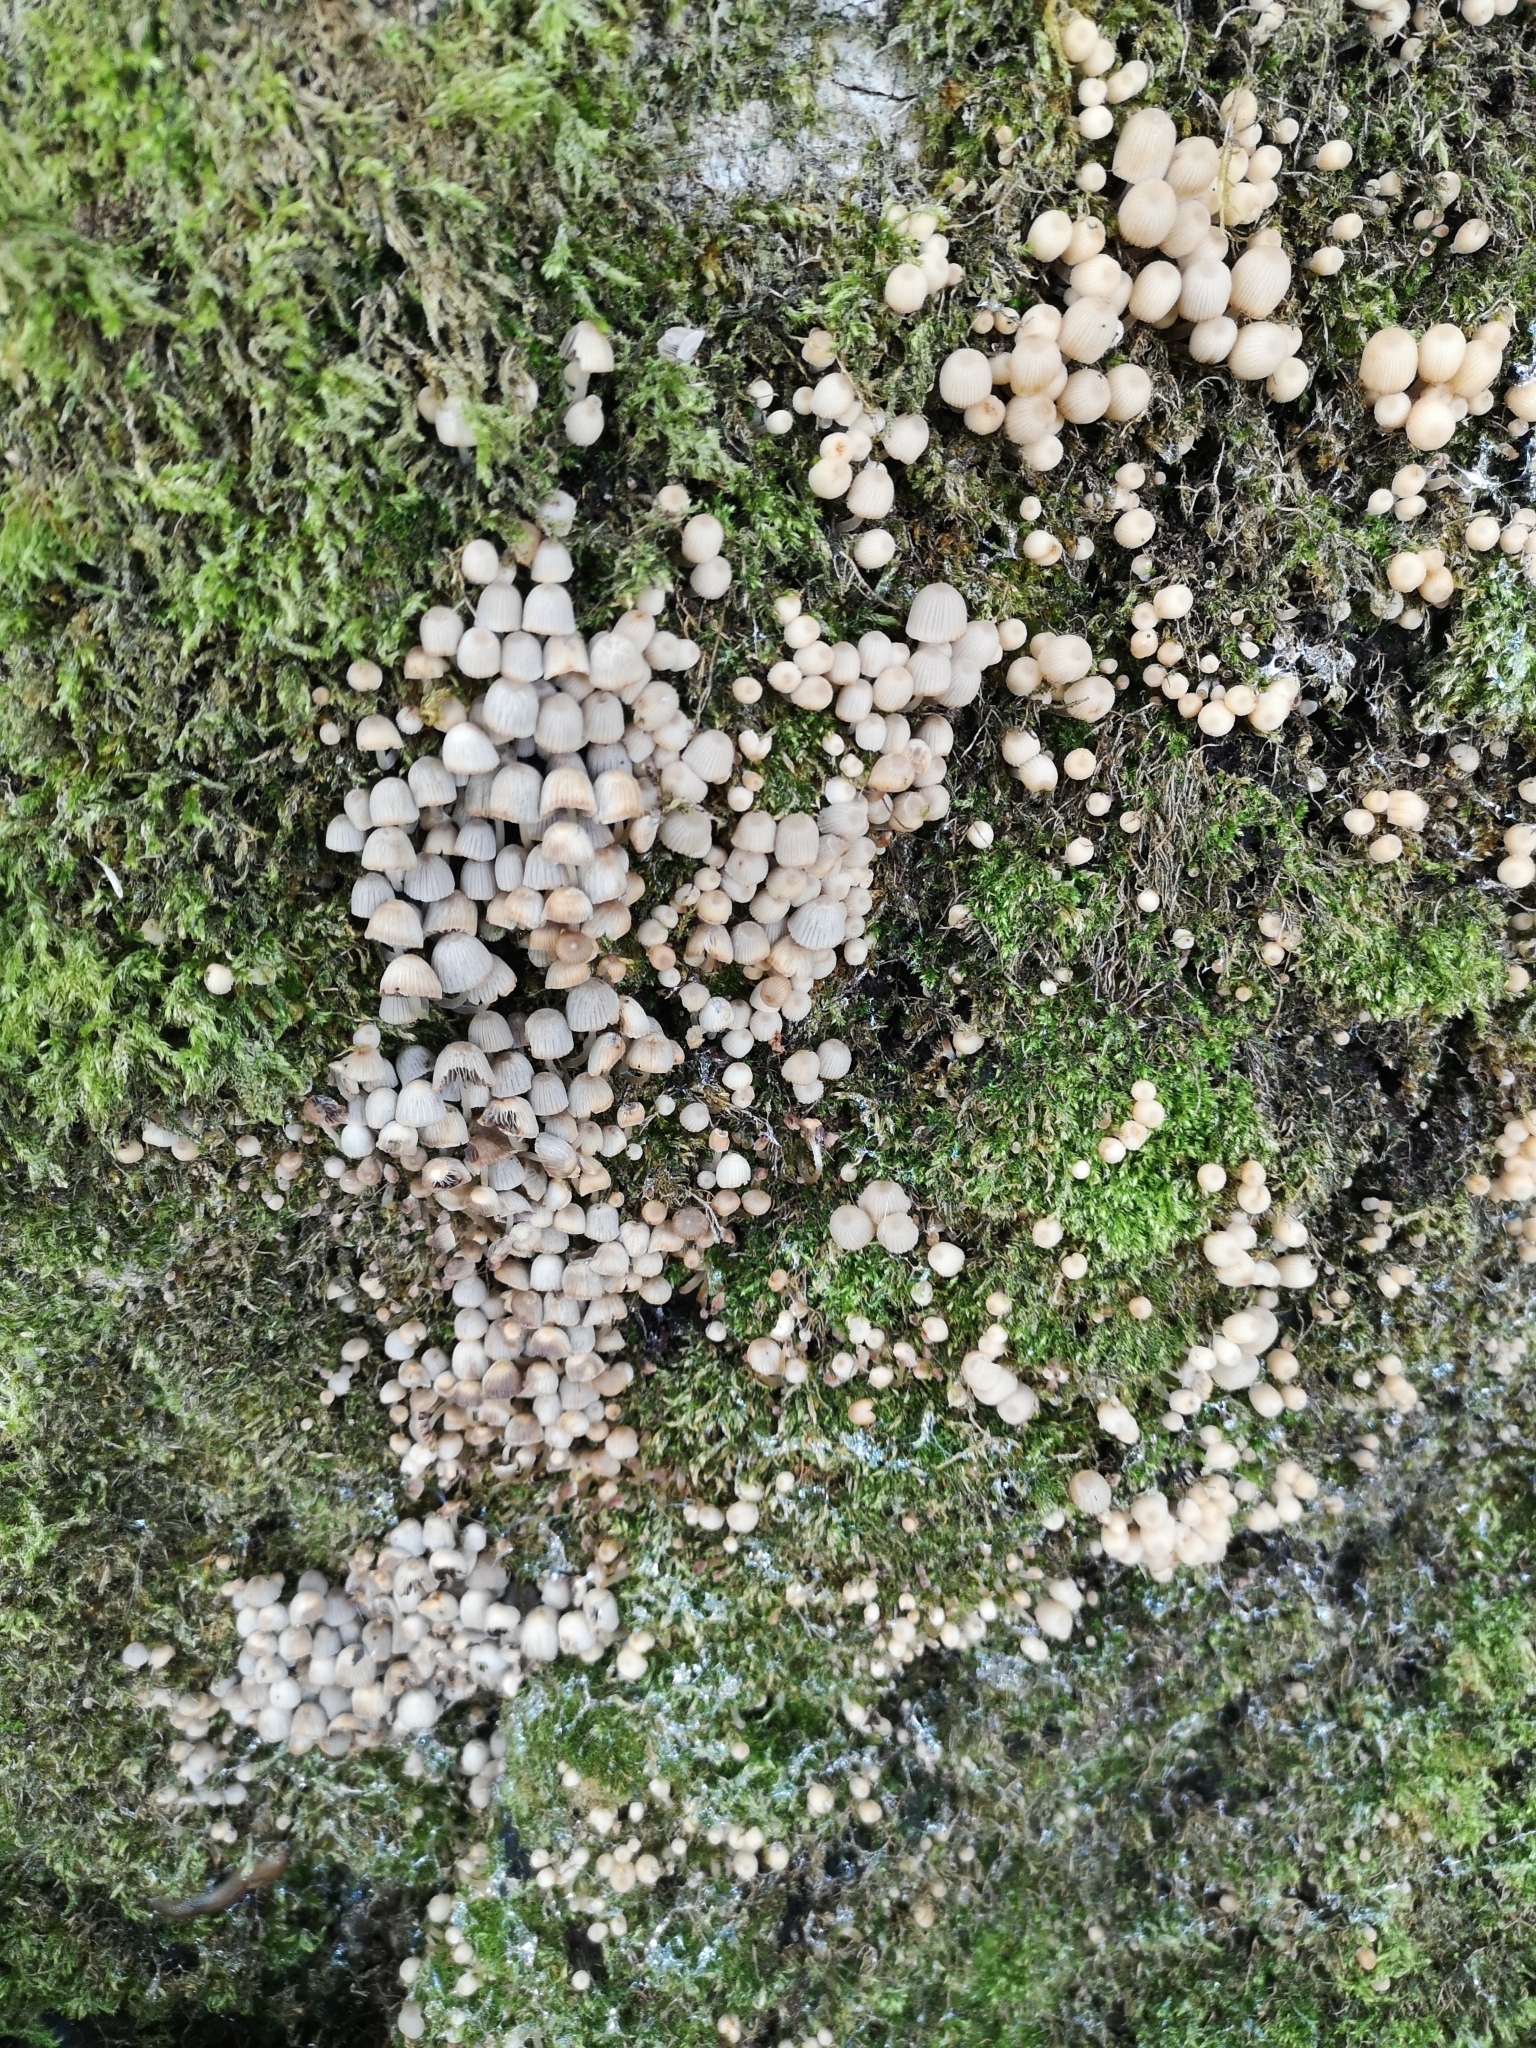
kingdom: Fungi
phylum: Basidiomycota
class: Agaricomycetes
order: Agaricales
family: Psathyrellaceae
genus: Coprinellus
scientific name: Coprinellus disseminatus
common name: Fairies' bonnets
